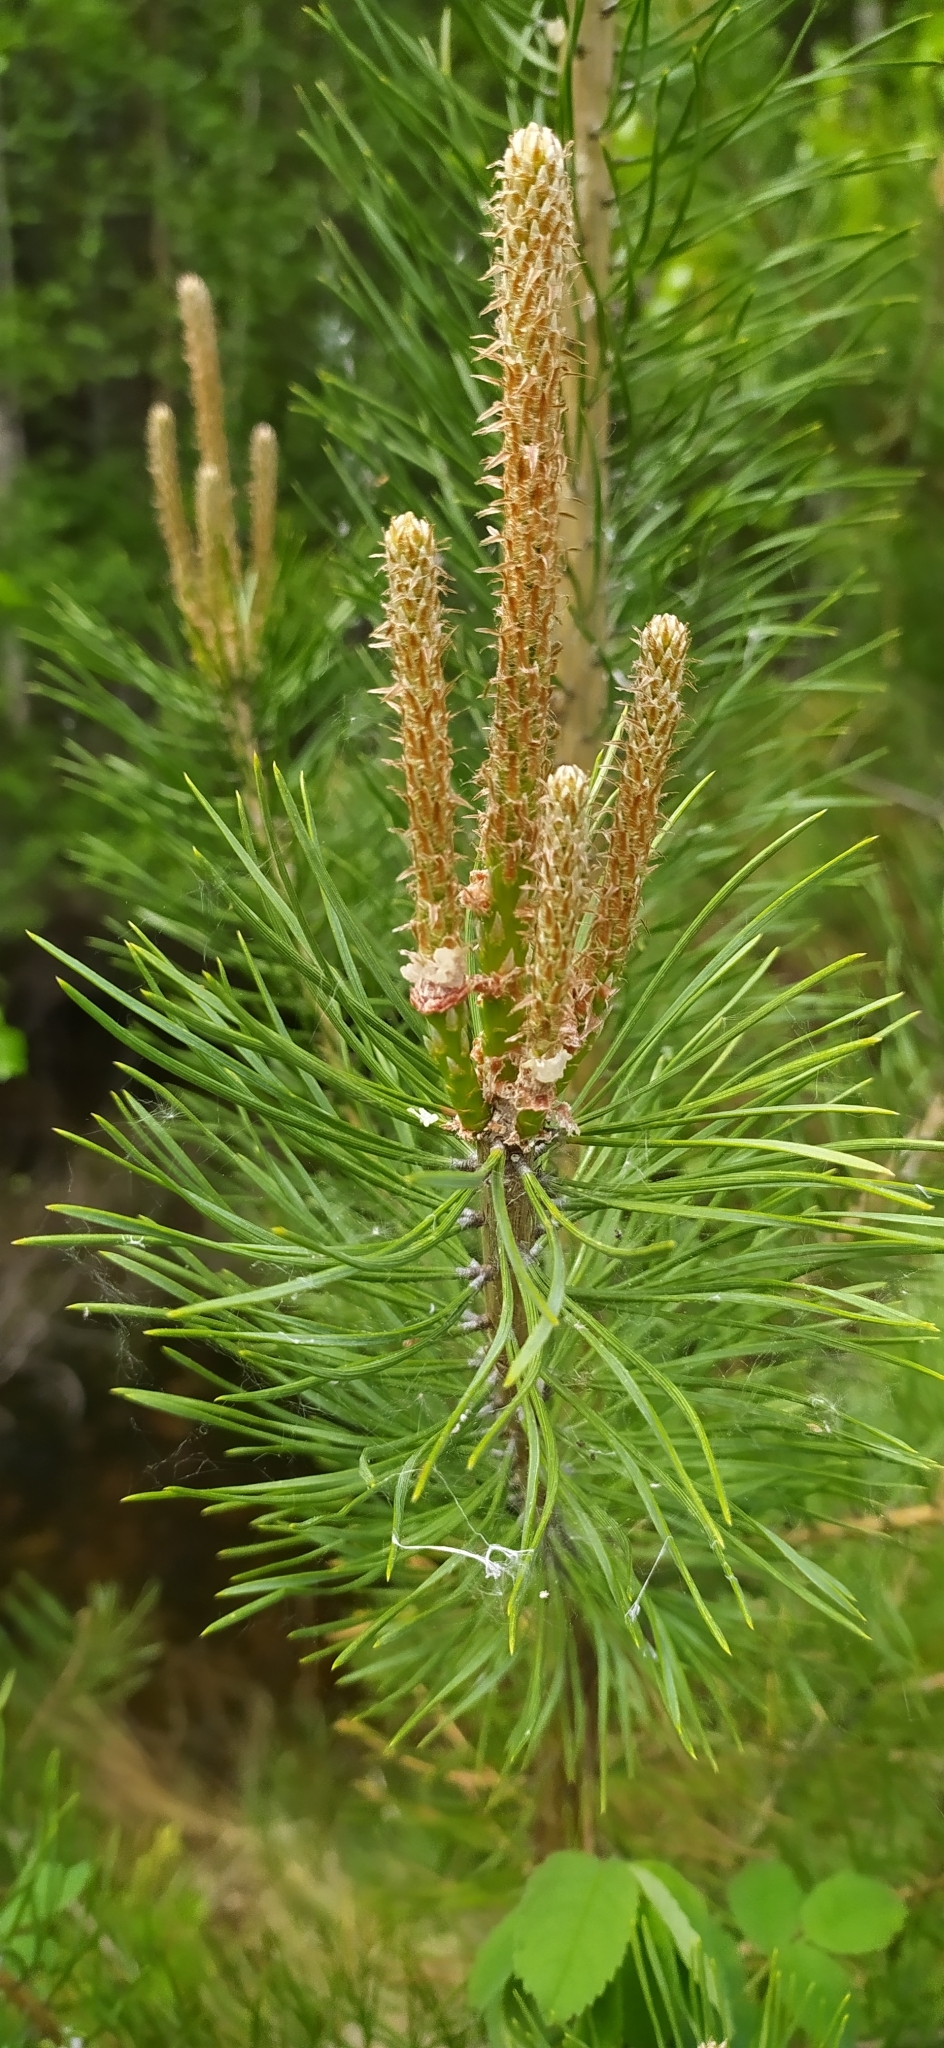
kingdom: Plantae
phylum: Tracheophyta
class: Pinopsida
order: Pinales
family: Pinaceae
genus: Pinus
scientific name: Pinus sylvestris
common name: Scots pine
